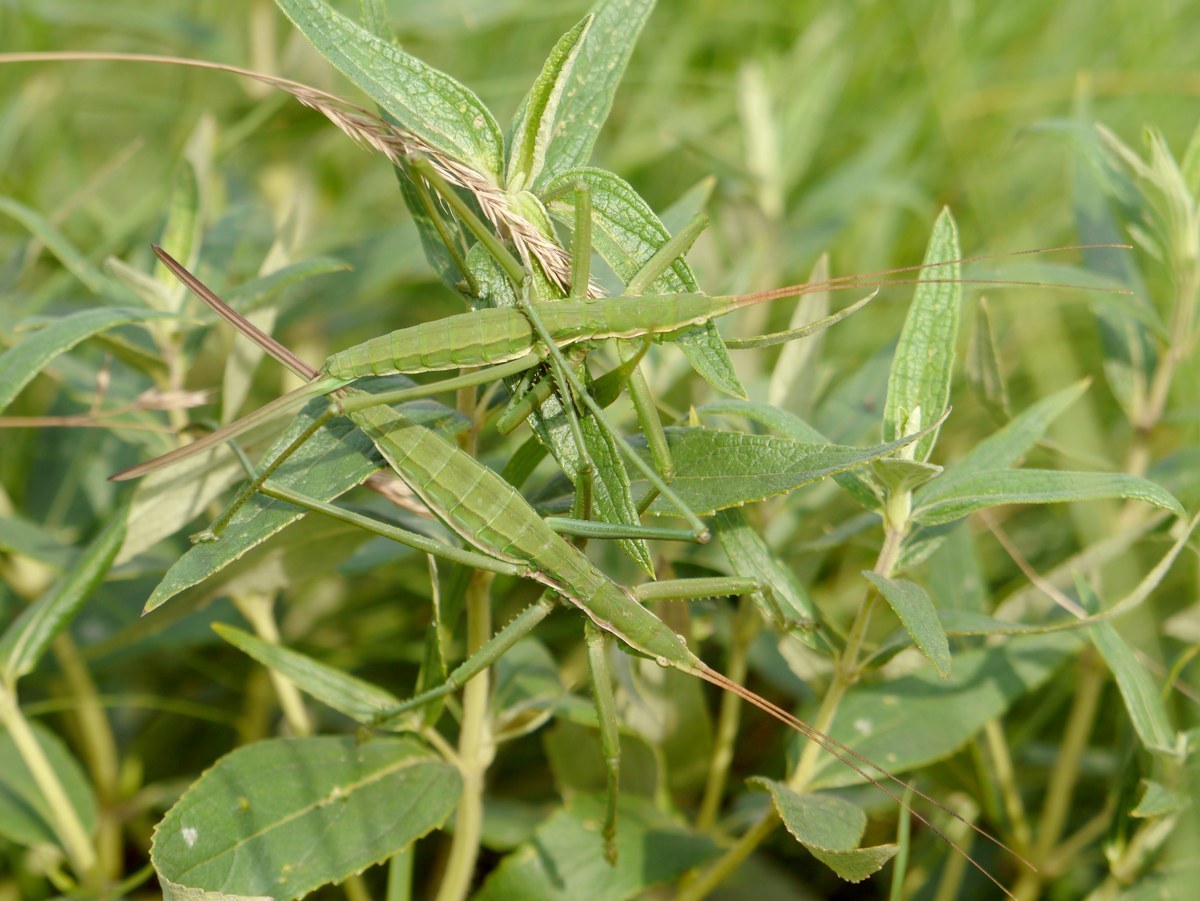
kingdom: Animalia
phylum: Arthropoda
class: Insecta
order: Orthoptera
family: Tettigoniidae
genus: Saga
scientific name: Saga pedo
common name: Common predatory bush-cricket
